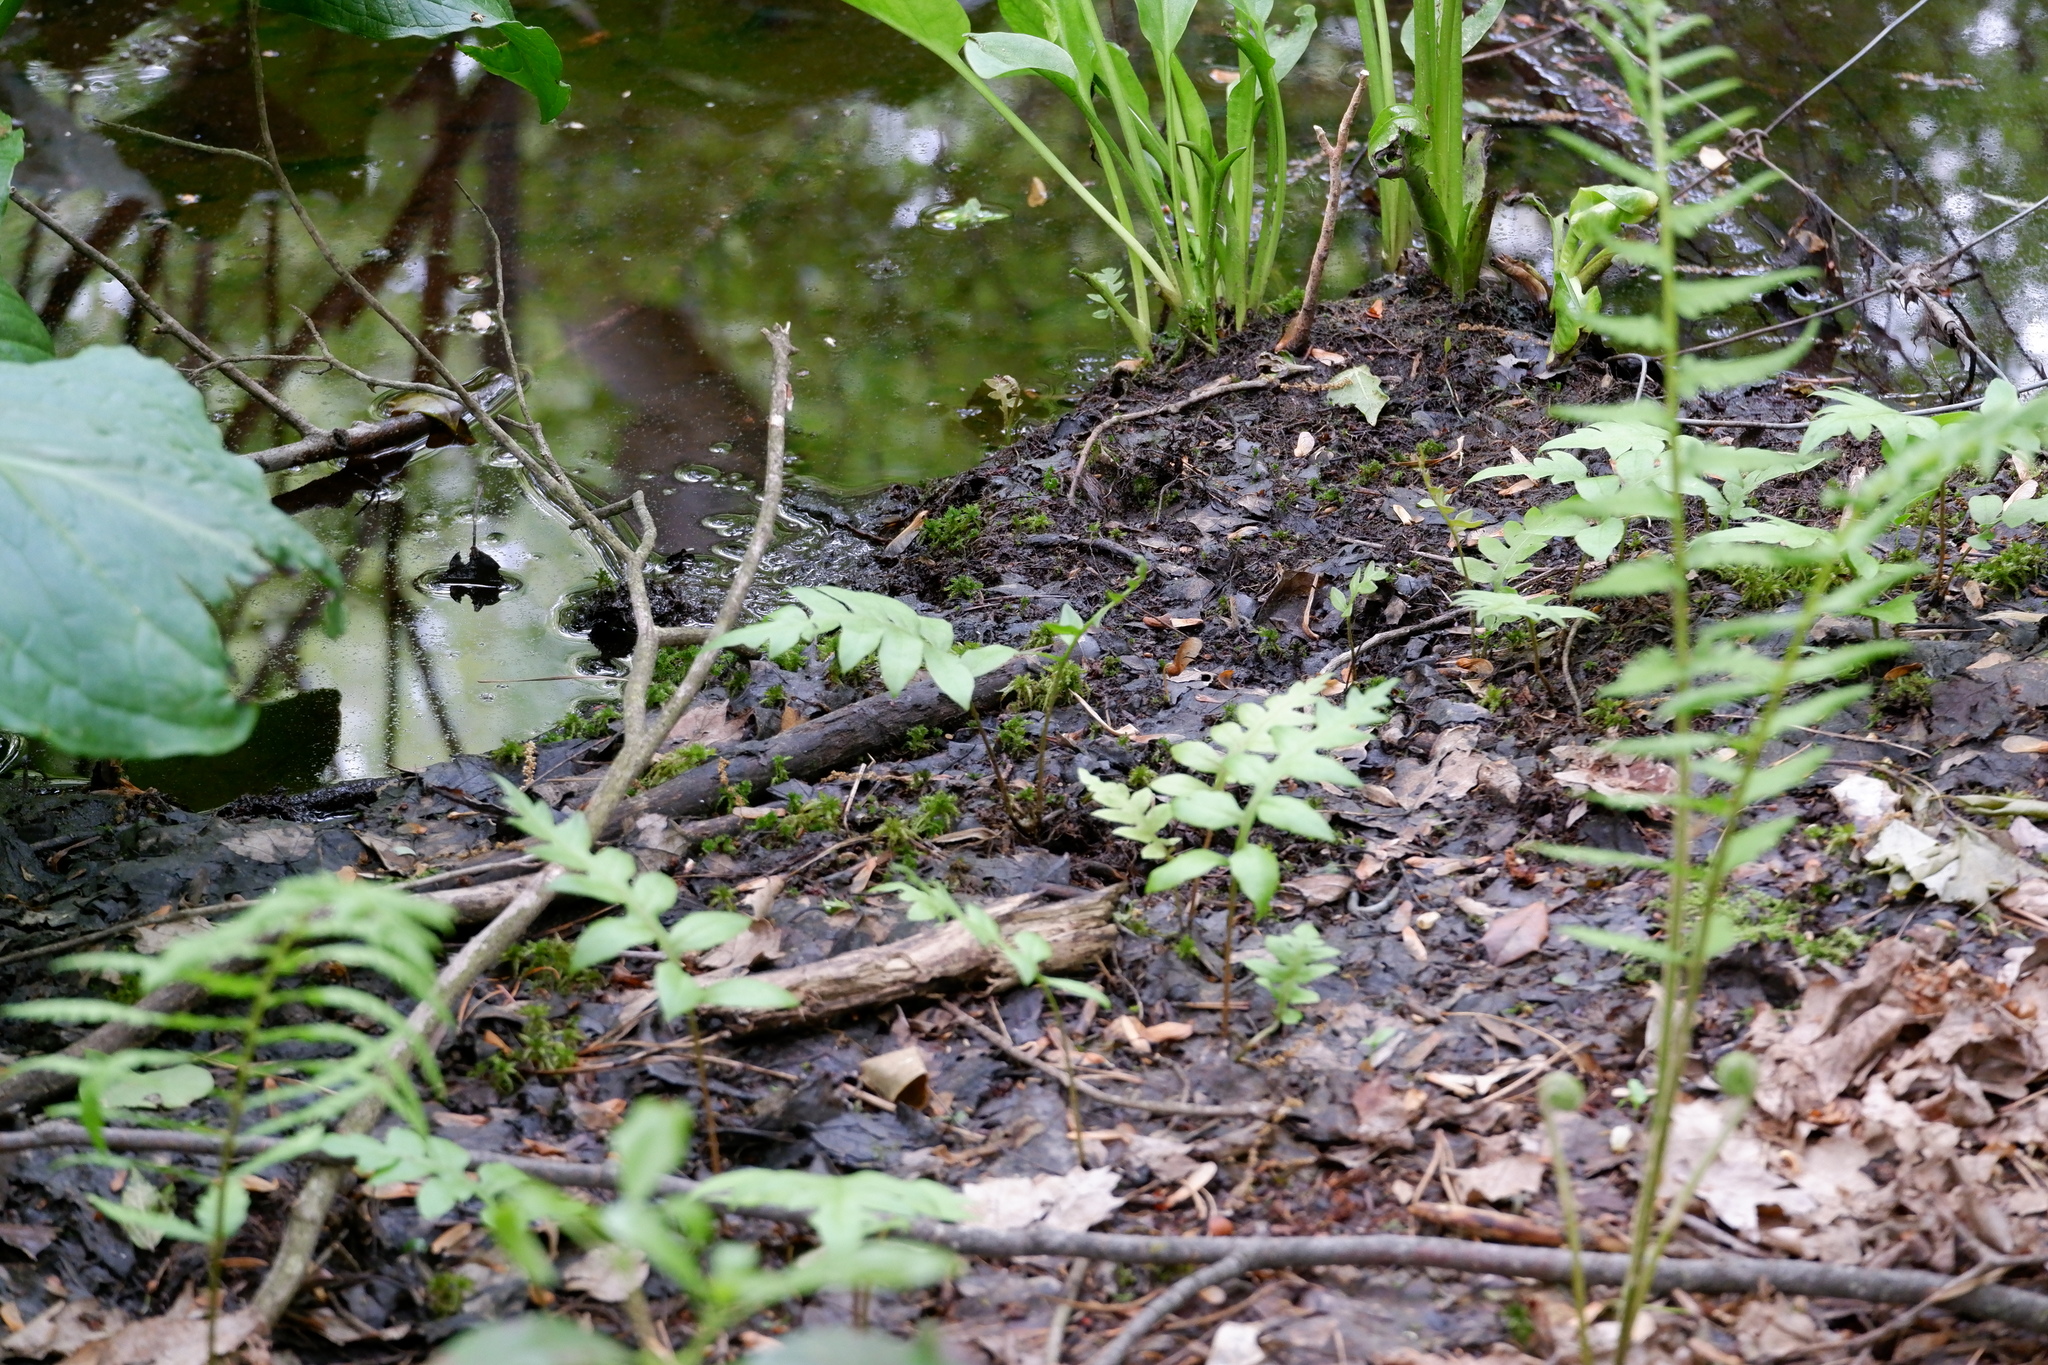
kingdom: Plantae
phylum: Tracheophyta
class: Polypodiopsida
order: Polypodiales
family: Blechnaceae
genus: Lorinseria
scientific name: Lorinseria areolata
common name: Dwarf chain fern
